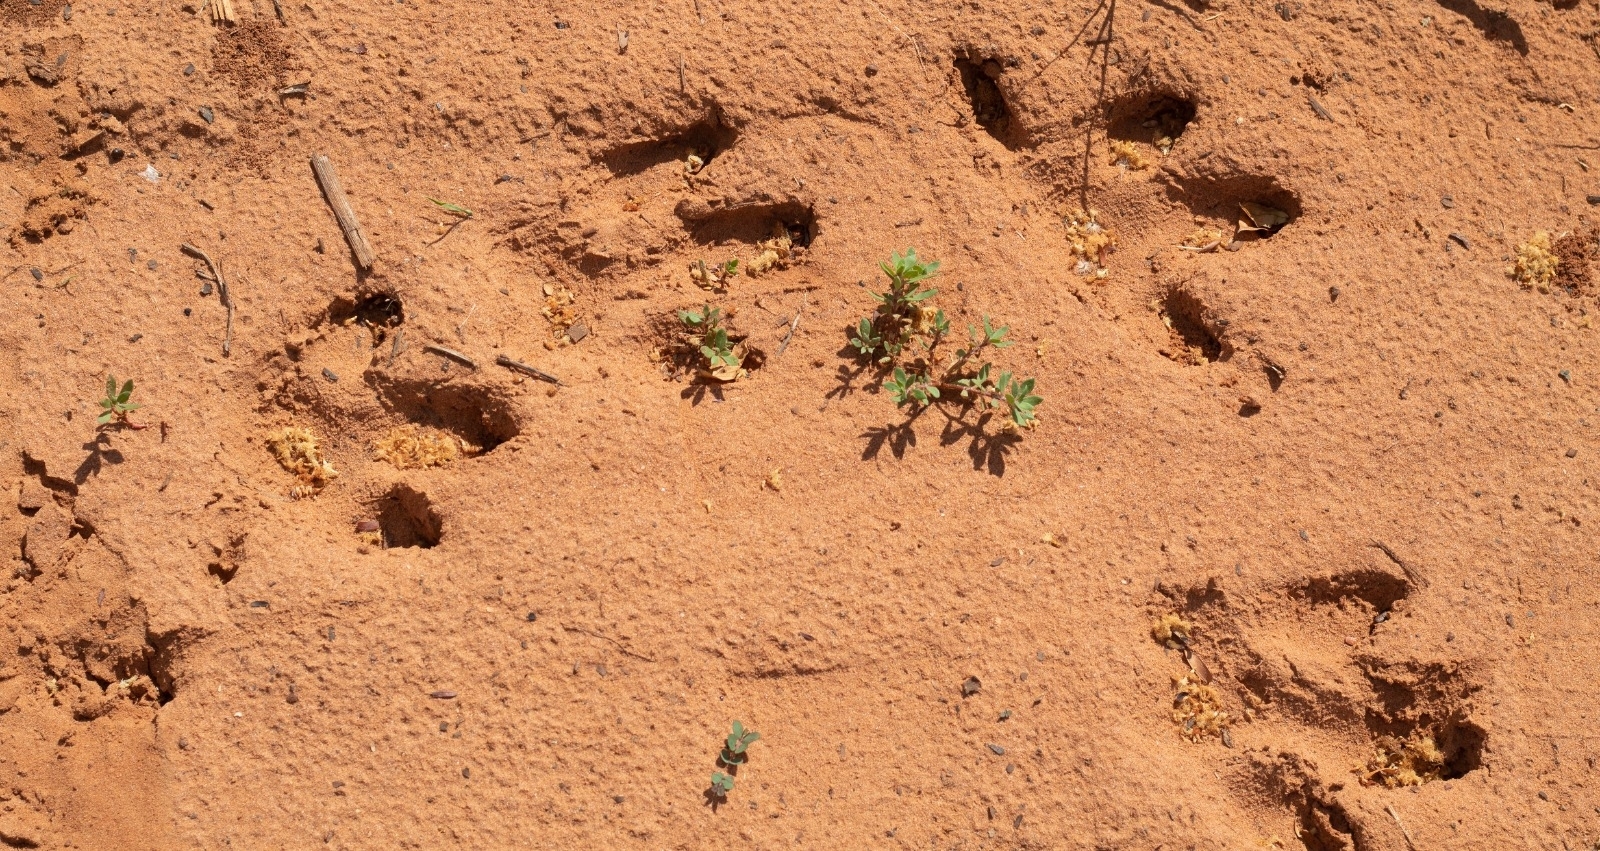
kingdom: Animalia
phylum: Chordata
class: Mammalia
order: Rodentia
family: Caviidae
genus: Hydrochoerus
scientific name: Hydrochoerus hydrochaeris
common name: Capybara
